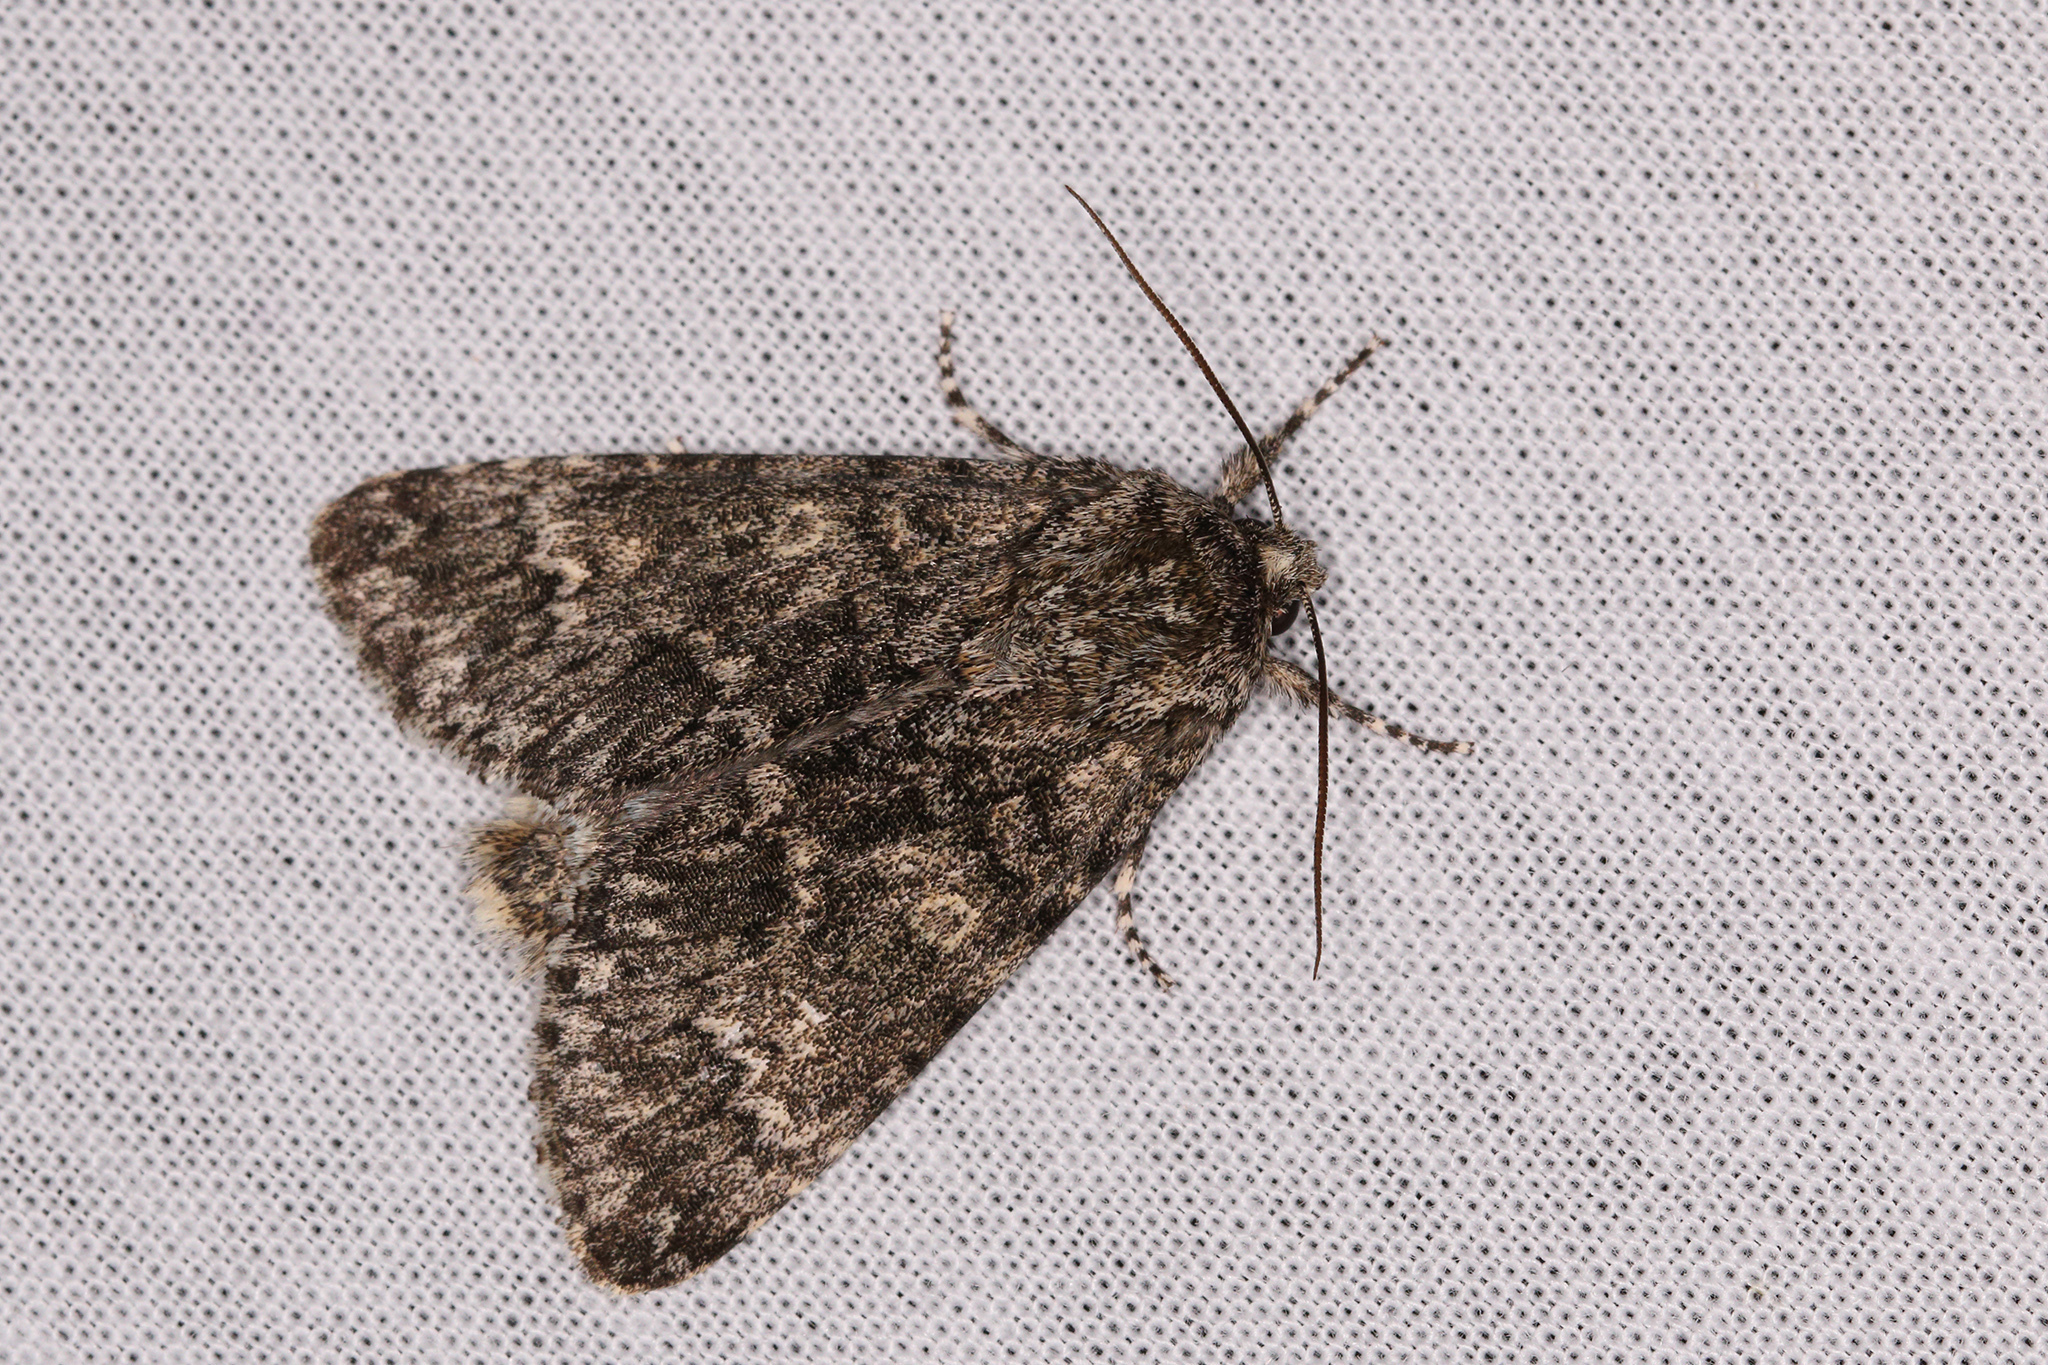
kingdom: Animalia
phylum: Arthropoda
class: Insecta
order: Lepidoptera
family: Noctuidae
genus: Acronicta
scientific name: Acronicta megacephala
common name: Poplar grey
